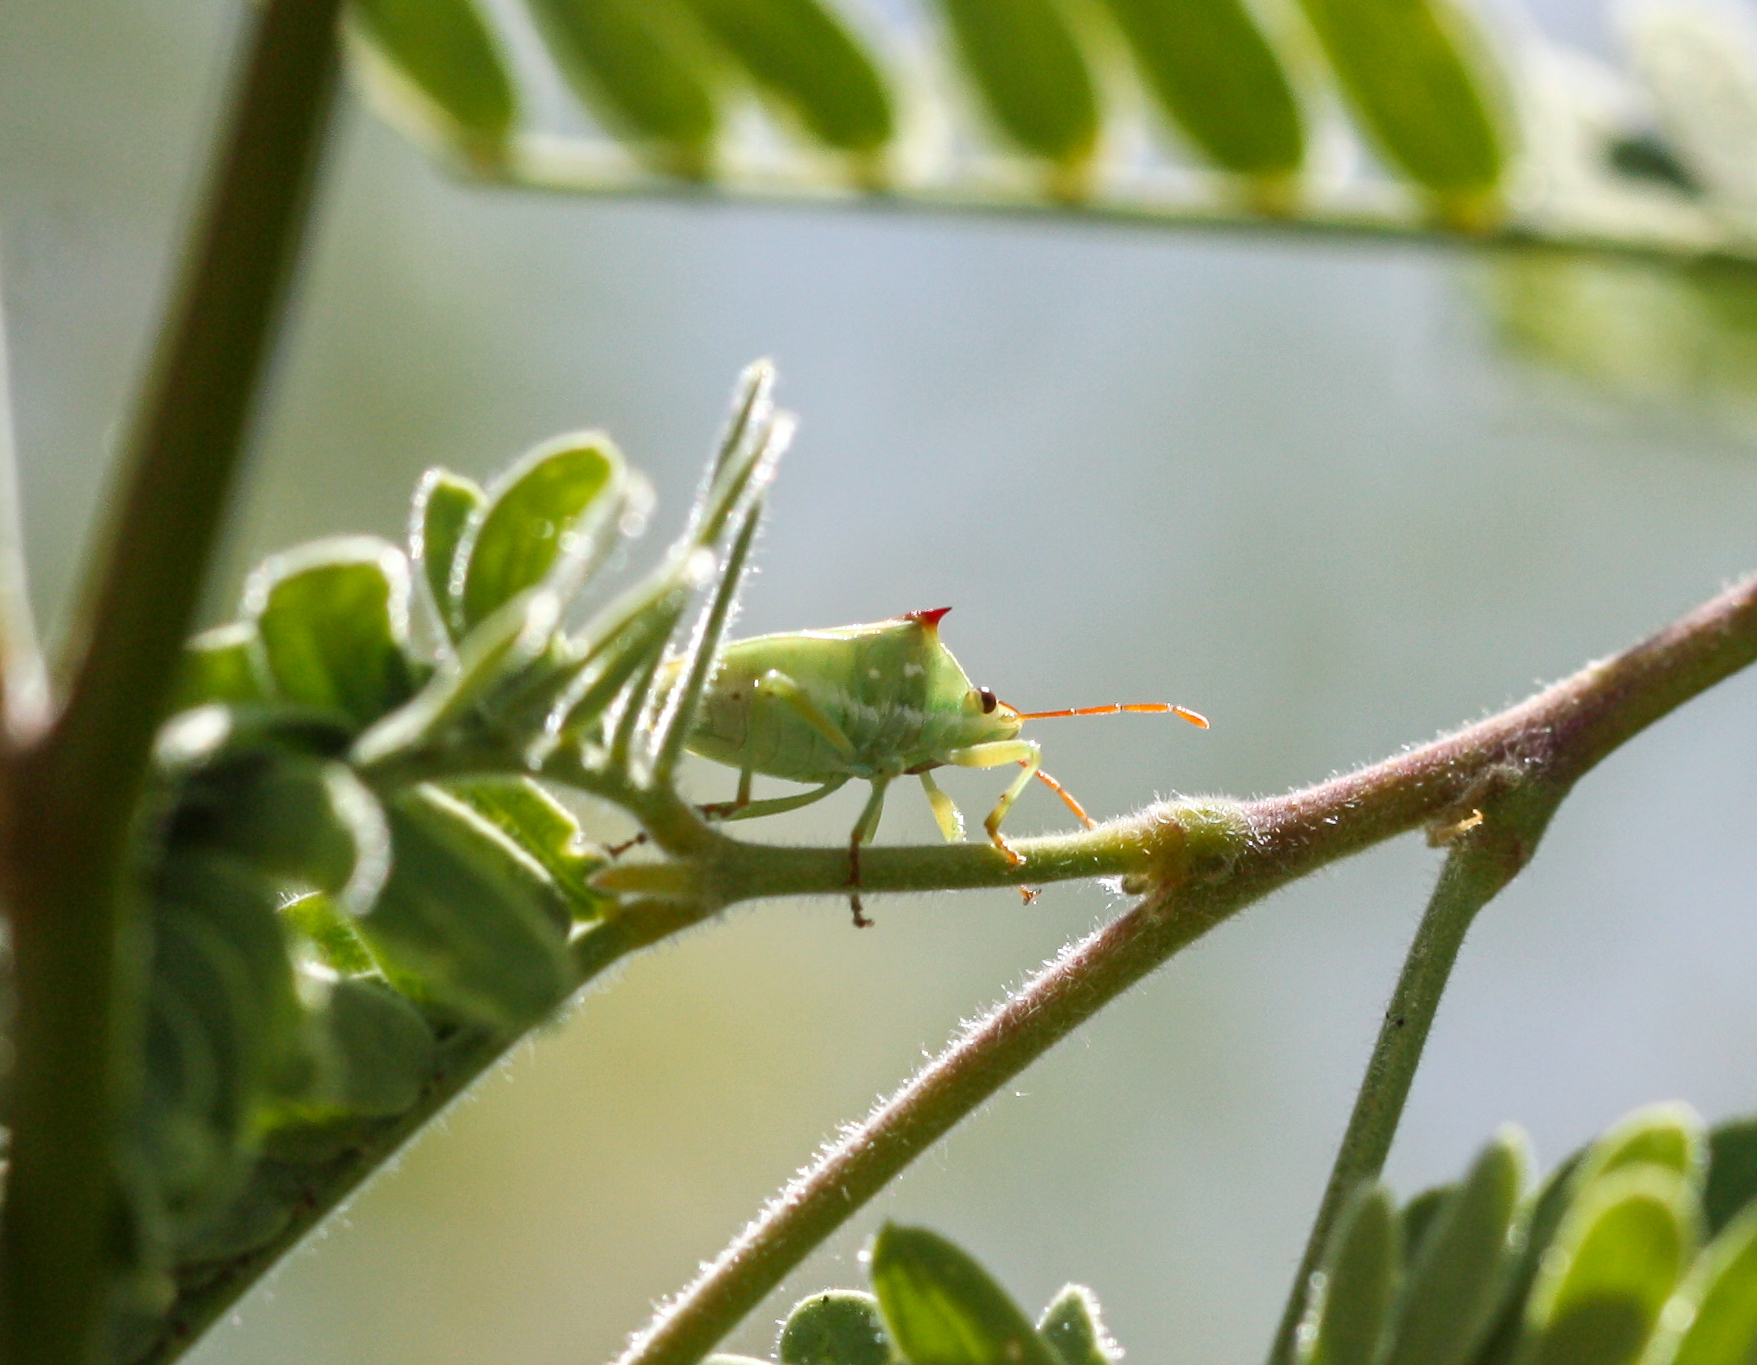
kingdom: Animalia
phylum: Arthropoda
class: Insecta
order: Hemiptera
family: Pentatomidae
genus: Tylospilus
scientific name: Tylospilus acutissimus
